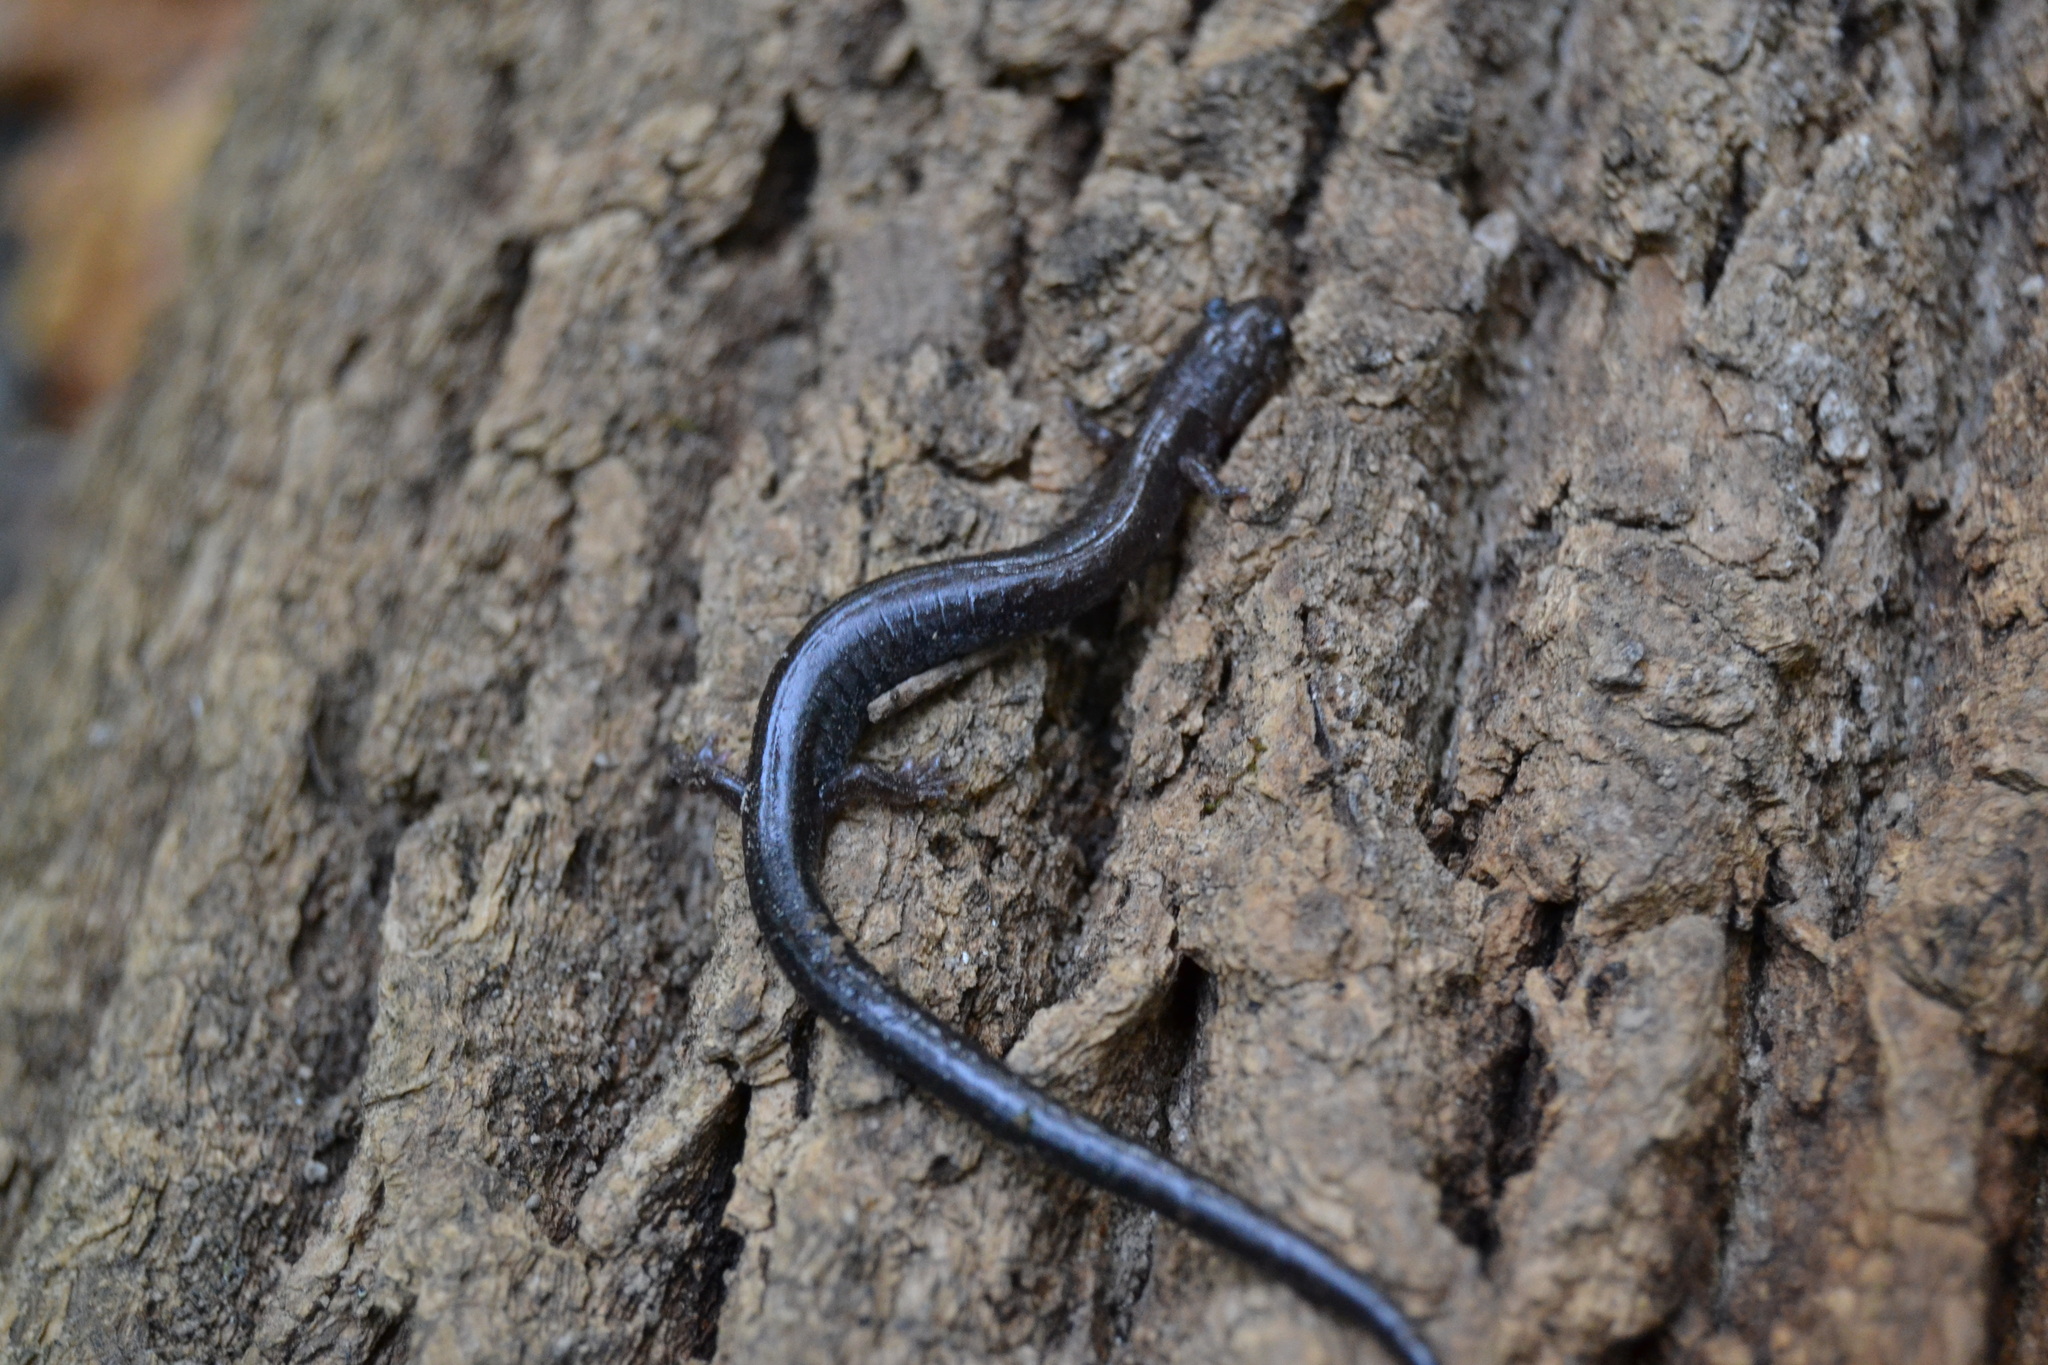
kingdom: Animalia
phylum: Chordata
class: Amphibia
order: Caudata
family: Plethodontidae
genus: Plethodon
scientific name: Plethodon cinereus
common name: Redback salamander
